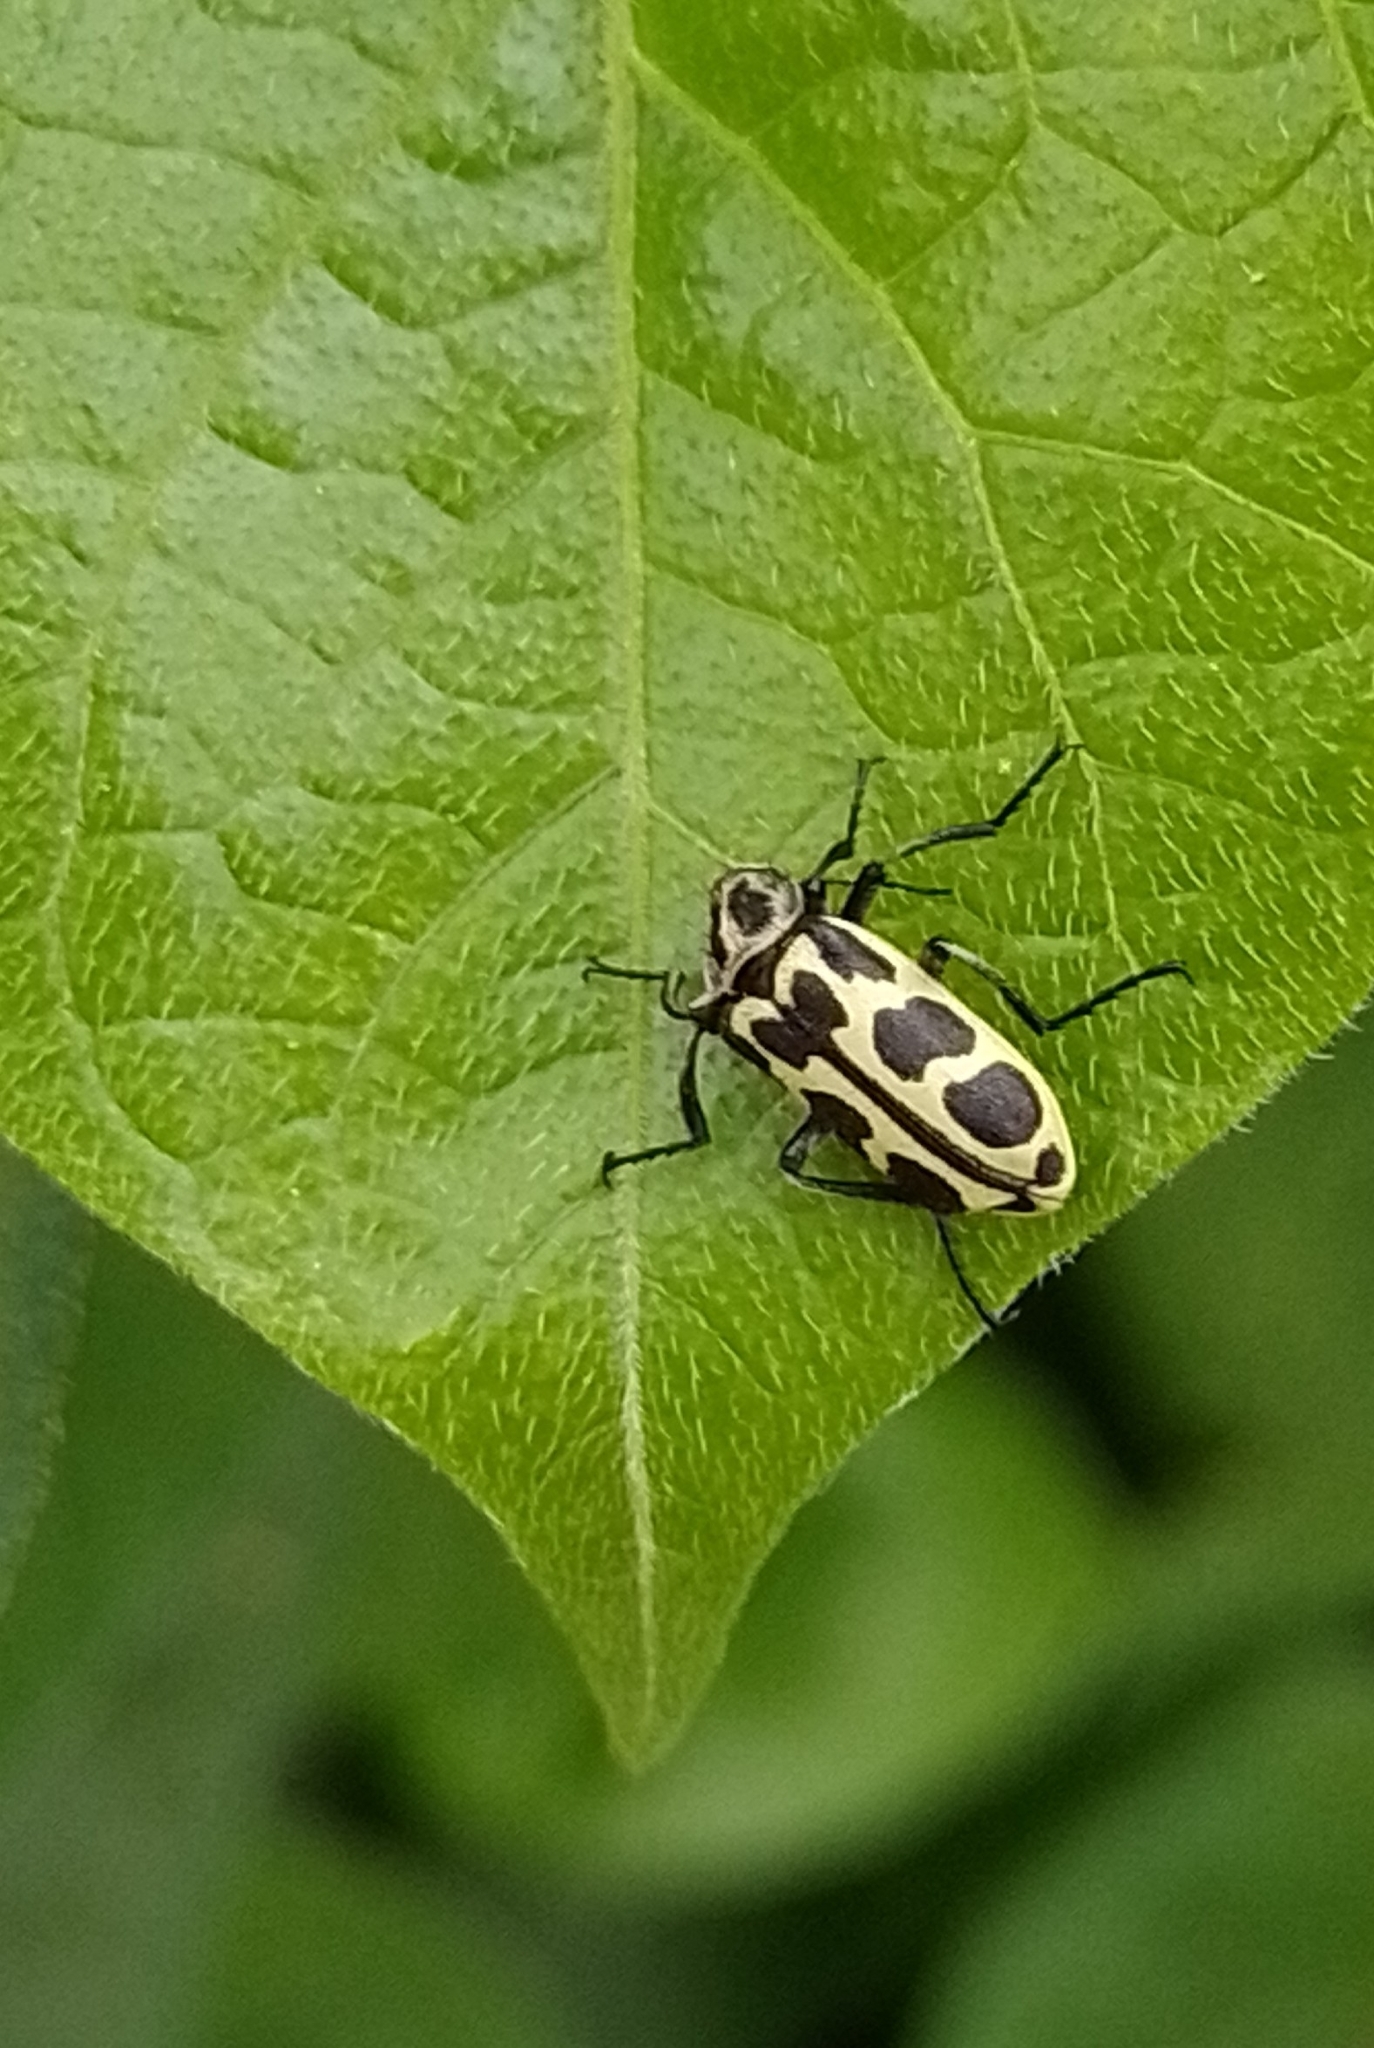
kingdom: Animalia
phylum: Arthropoda
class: Insecta
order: Coleoptera
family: Melyridae
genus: Astylus
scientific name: Astylus atromaculatus
